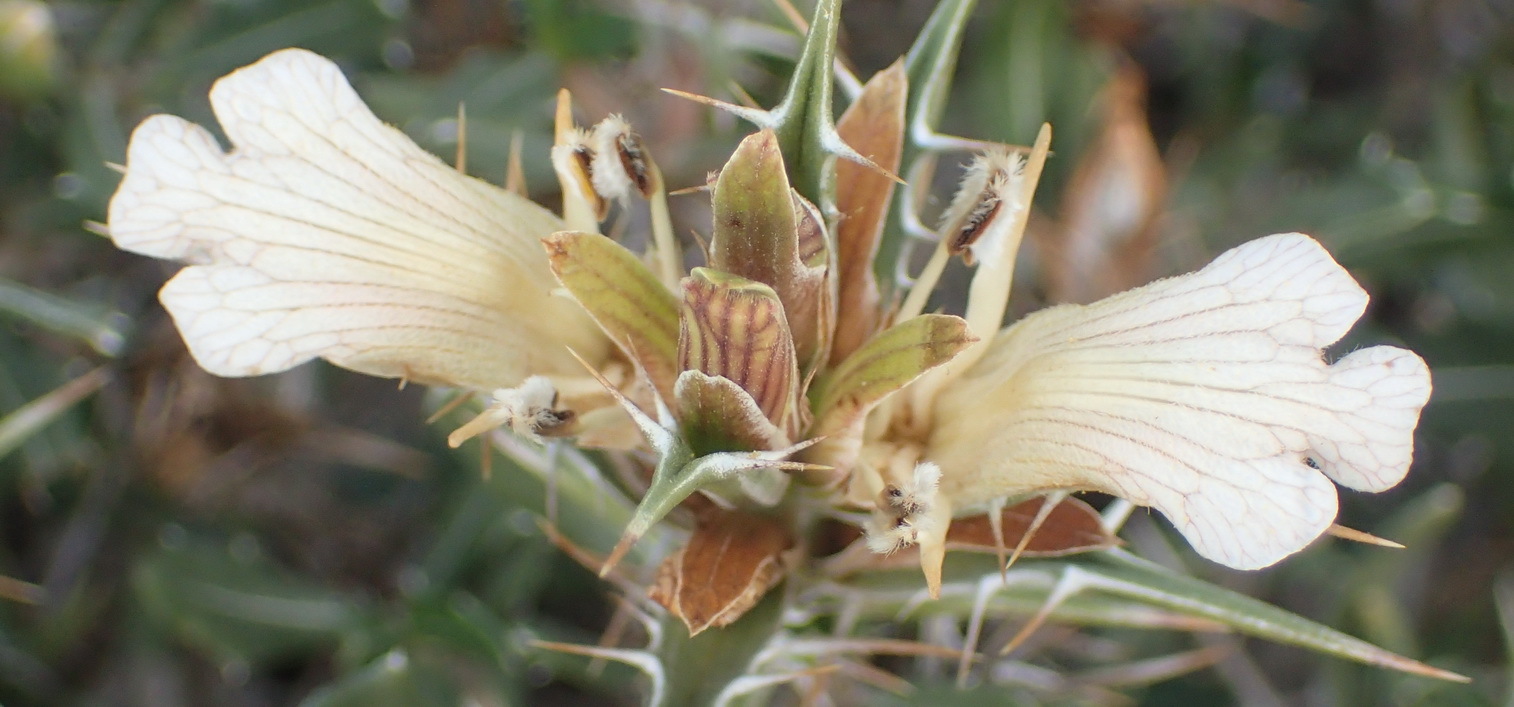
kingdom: Plantae
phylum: Tracheophyta
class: Magnoliopsida
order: Lamiales
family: Acanthaceae
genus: Blepharis
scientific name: Blepharis capensis
